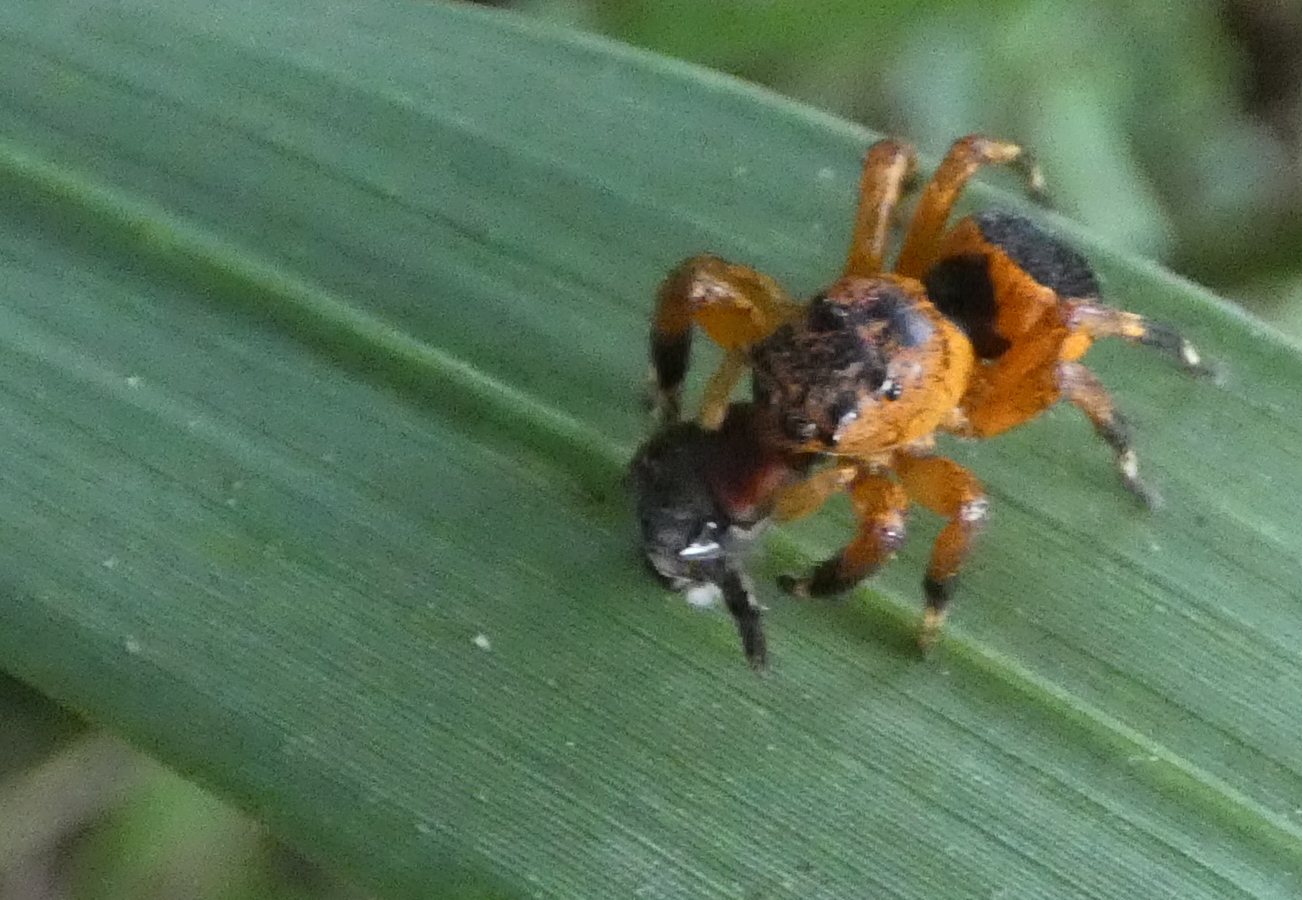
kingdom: Animalia
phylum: Arthropoda
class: Arachnida
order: Araneae
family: Salticidae
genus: Phiale
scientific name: Phiale
